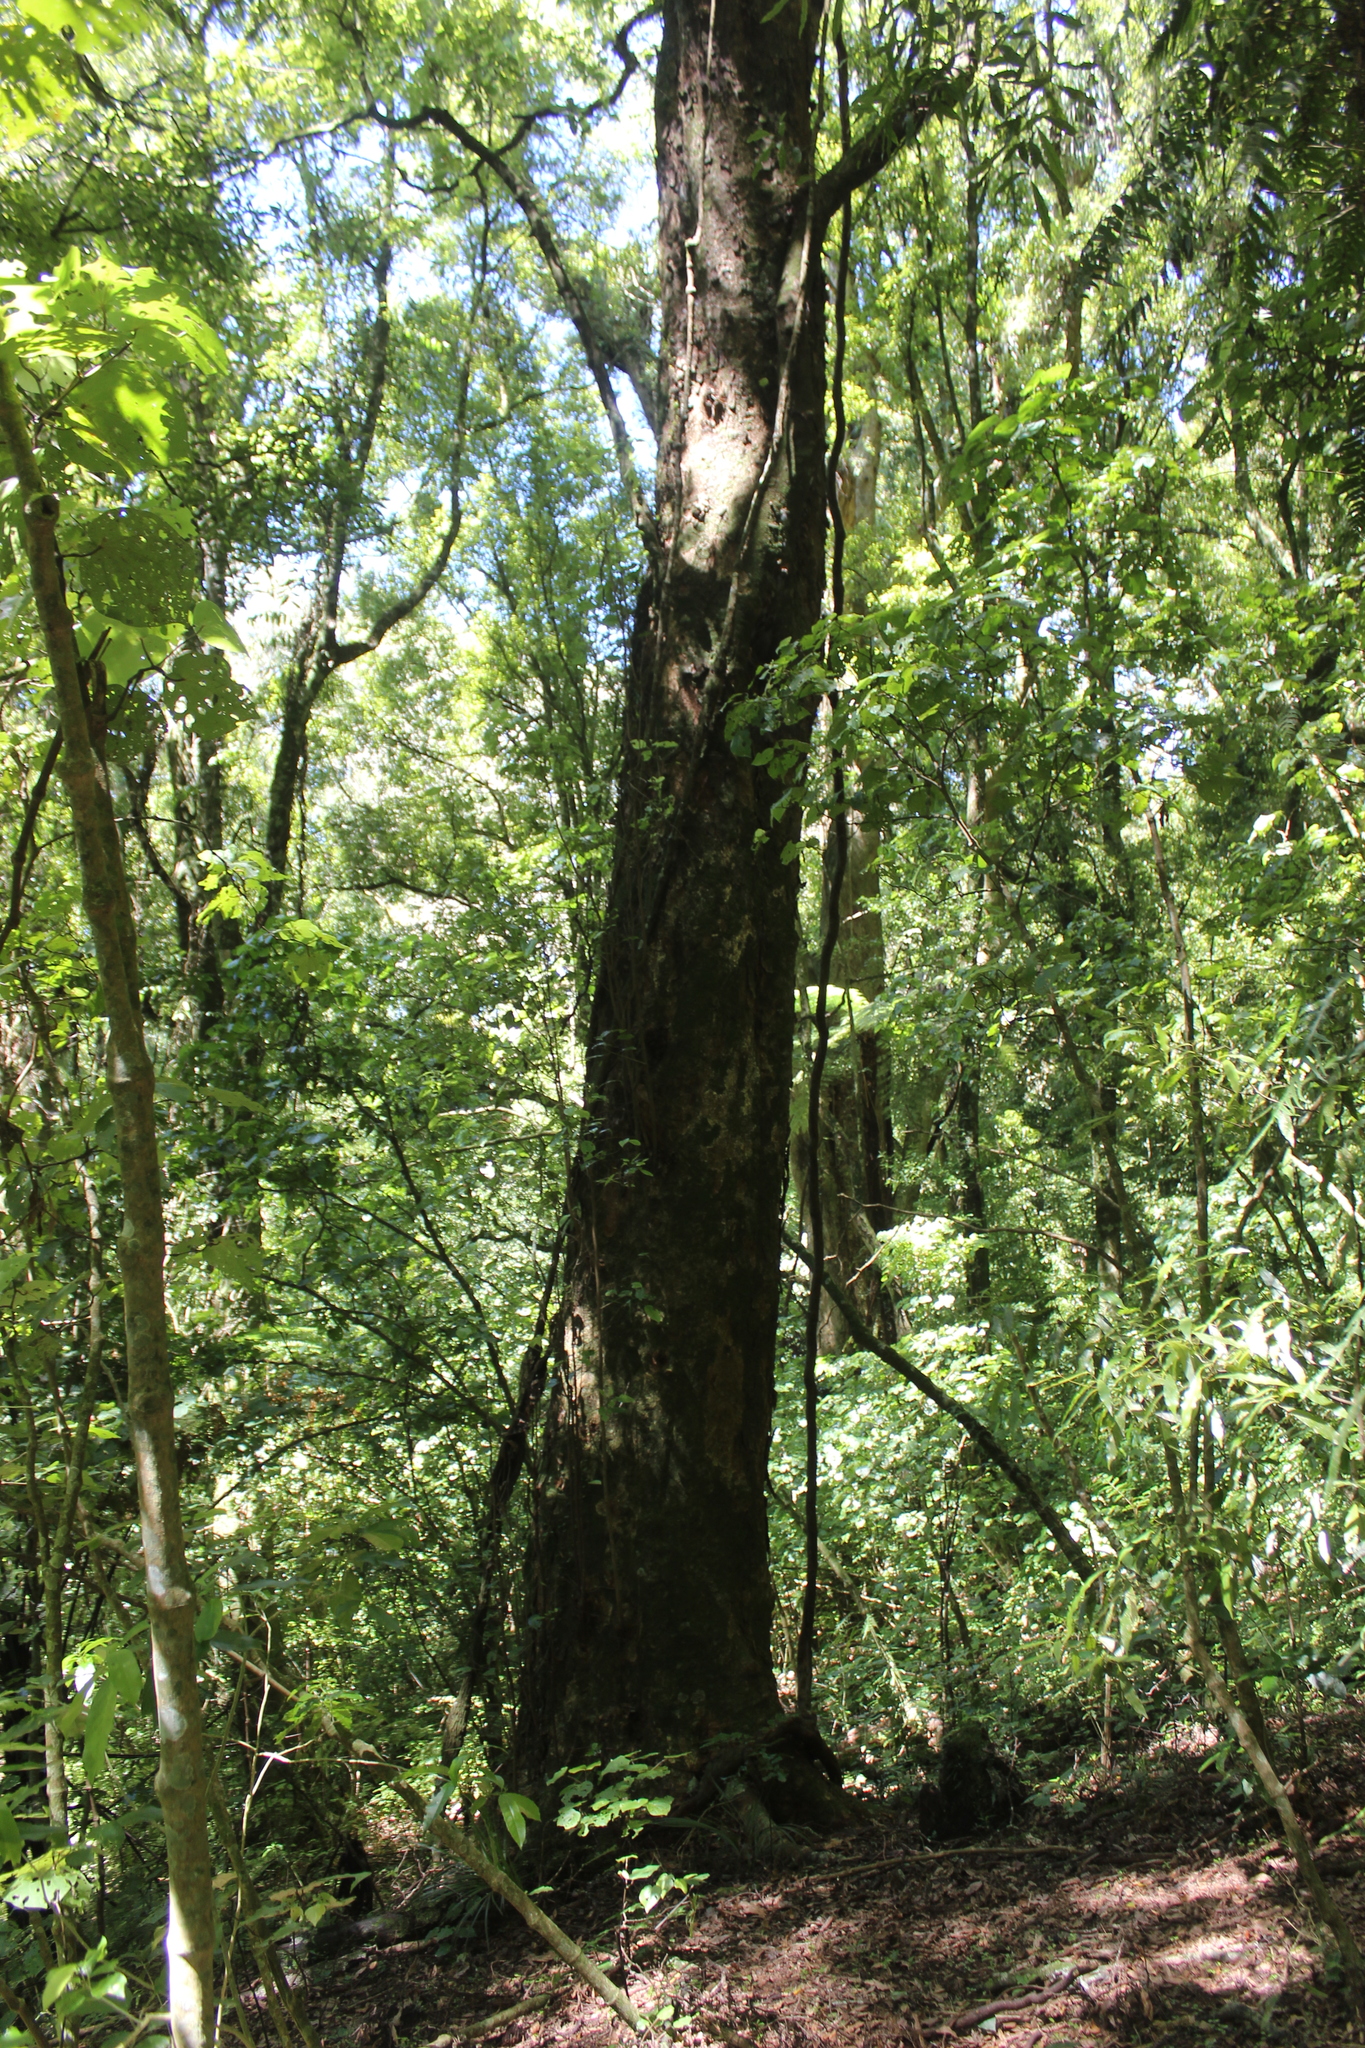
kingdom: Plantae
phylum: Tracheophyta
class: Magnoliopsida
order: Laurales
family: Lauraceae
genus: Litsea
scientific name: Litsea calicaris
